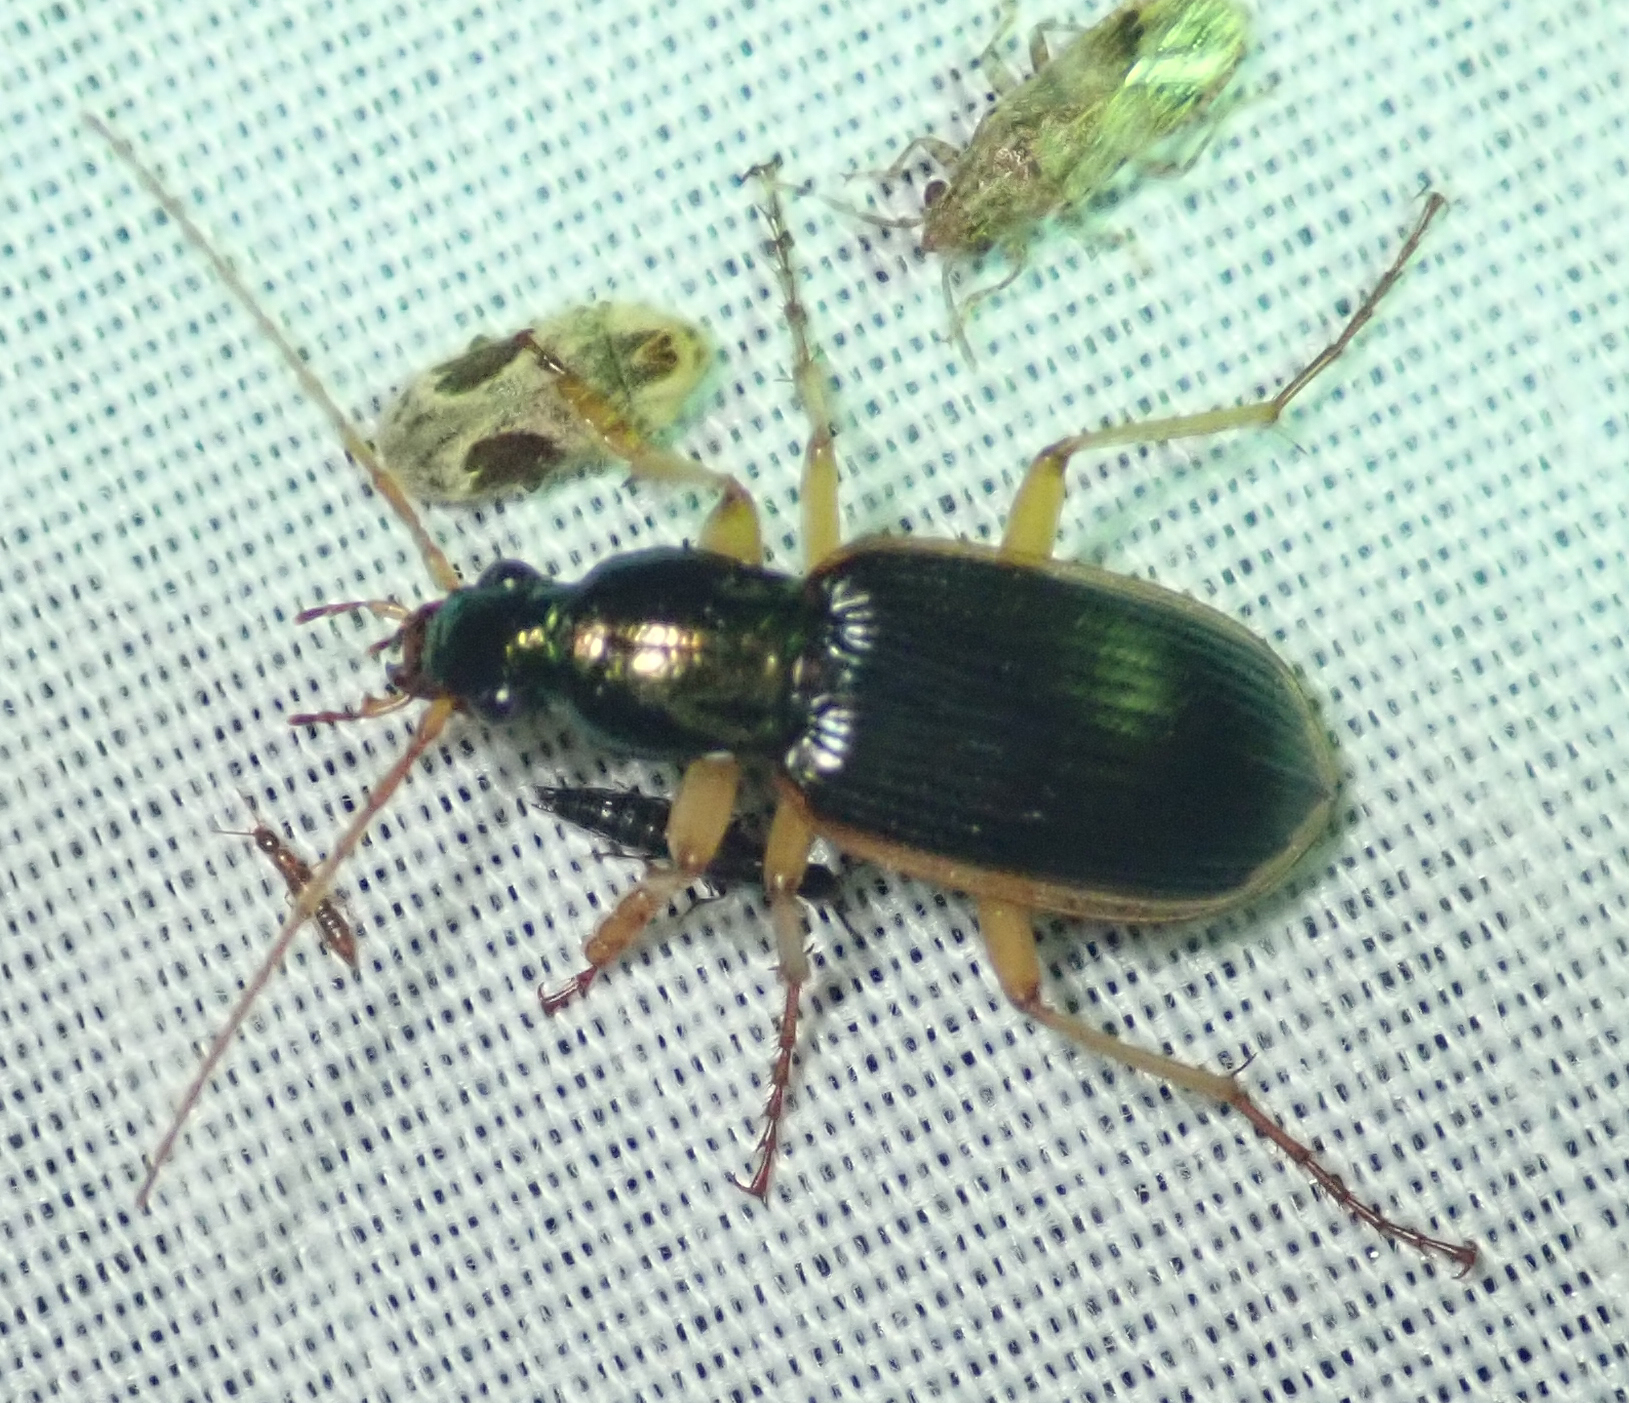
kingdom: Animalia
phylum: Arthropoda
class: Insecta
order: Coleoptera
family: Carabidae
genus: Chlaenius
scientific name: Chlaenius peringueyi
